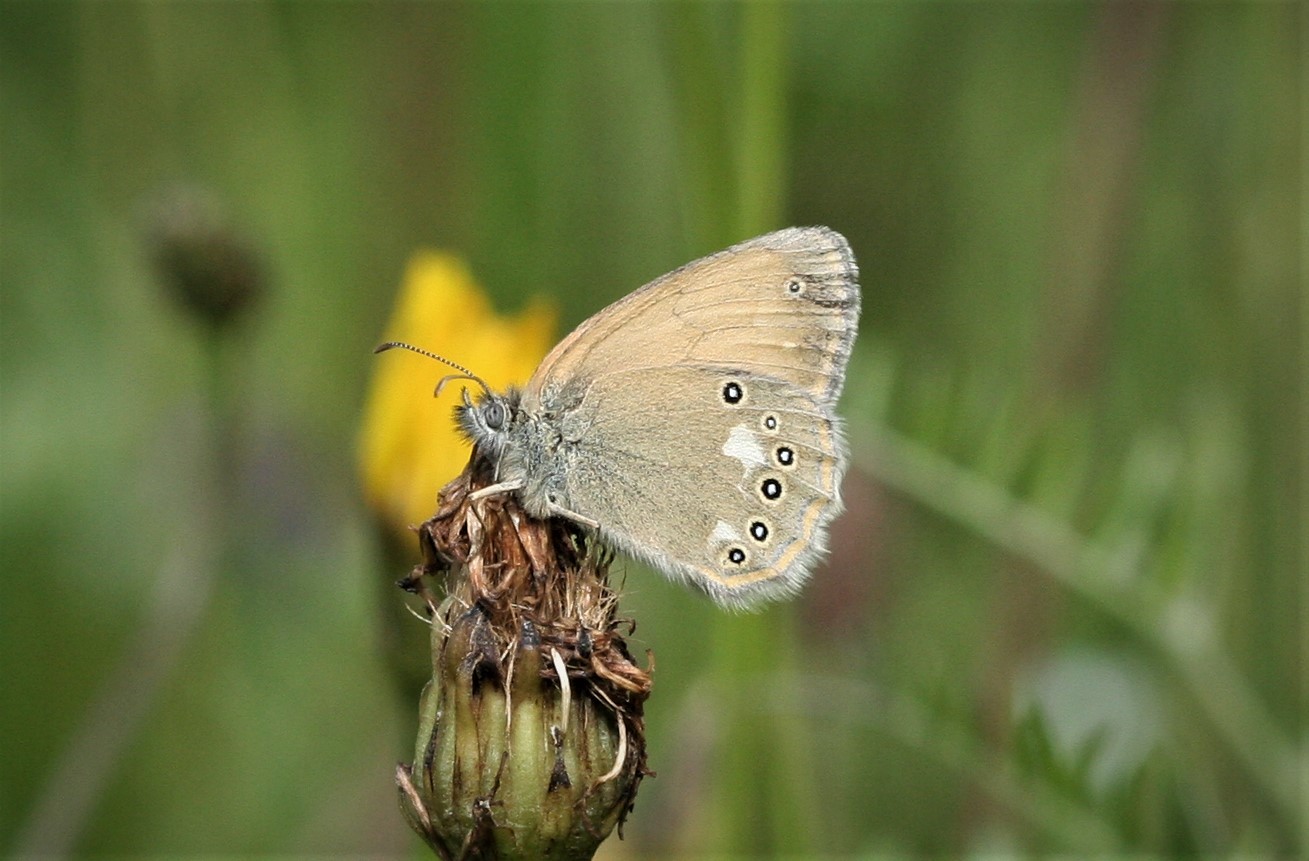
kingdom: Animalia
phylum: Arthropoda
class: Insecta
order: Lepidoptera
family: Nymphalidae
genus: Coenonympha
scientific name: Coenonympha iphis
